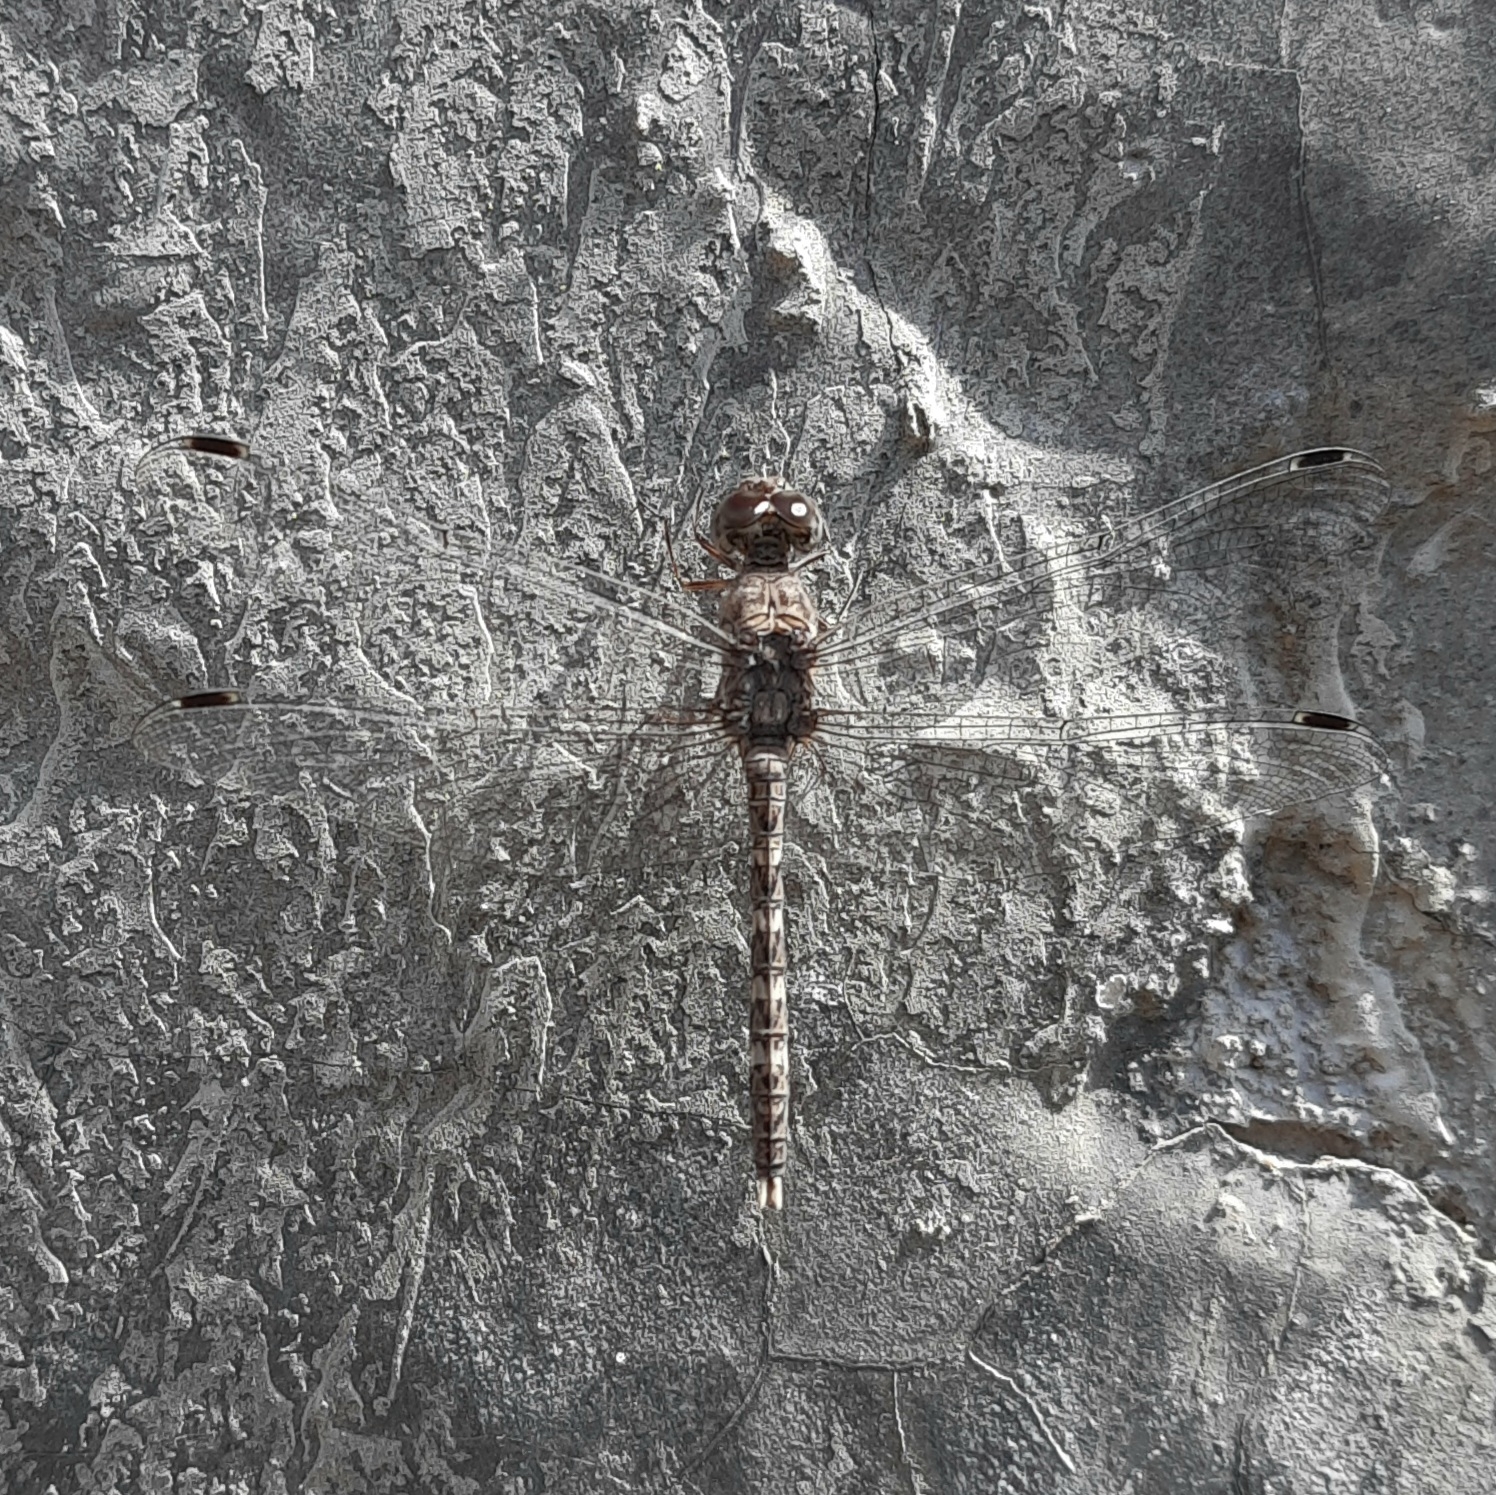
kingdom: Animalia
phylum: Arthropoda
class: Insecta
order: Odonata
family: Libellulidae
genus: Bradinopyga
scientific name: Bradinopyga geminata
